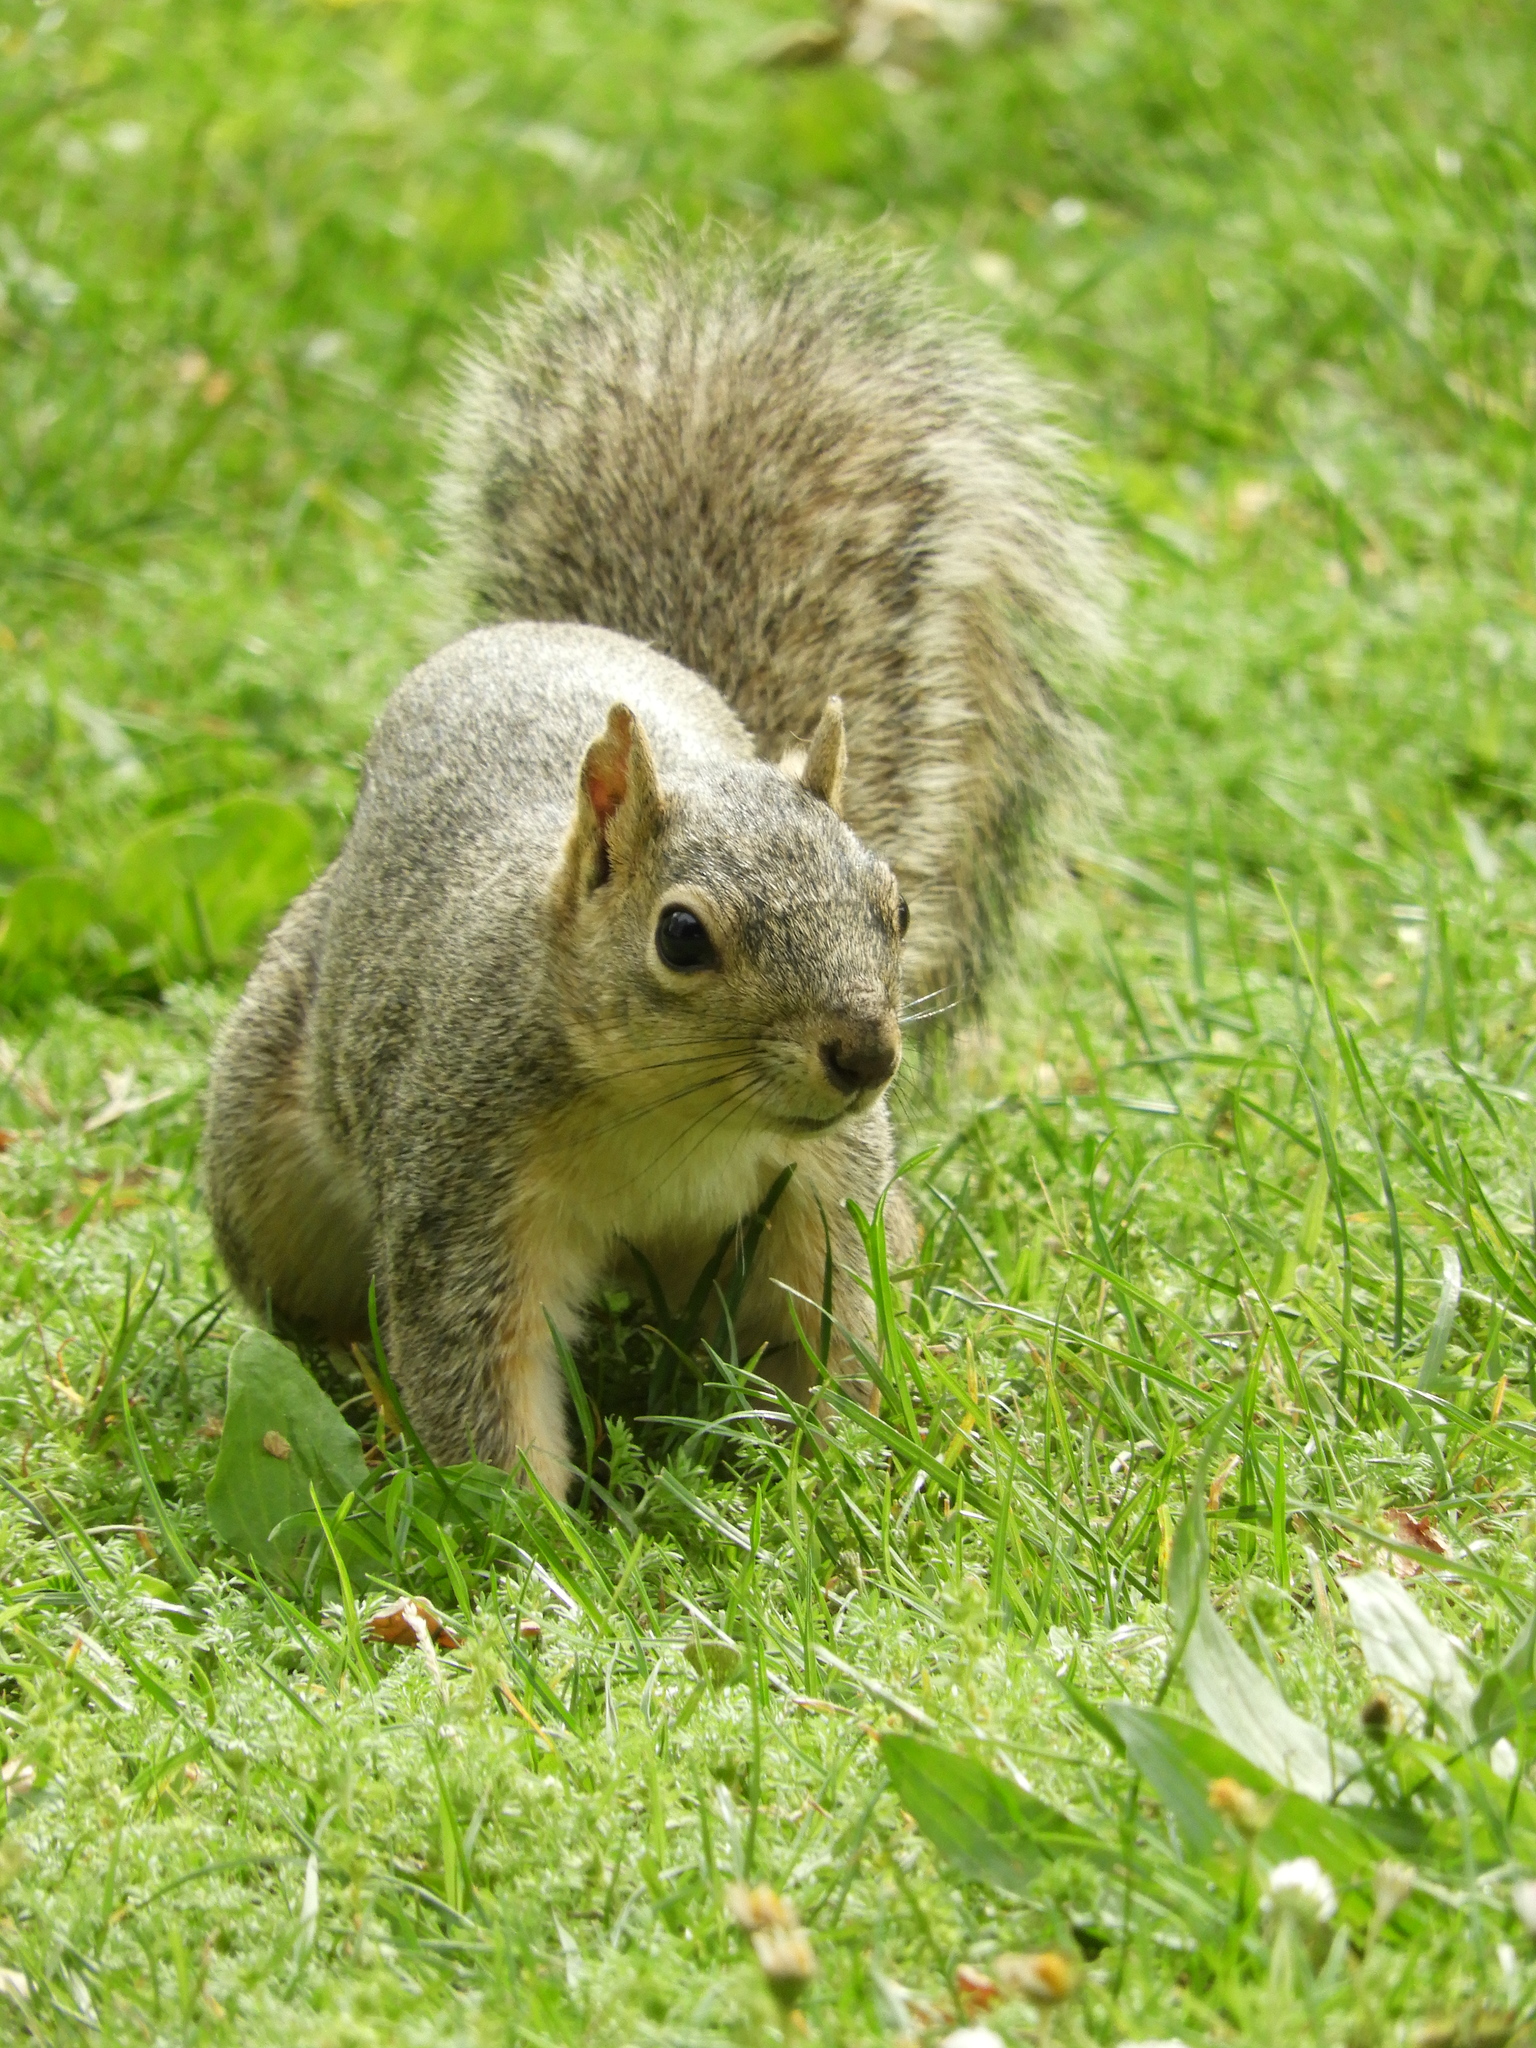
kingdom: Animalia
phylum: Chordata
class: Mammalia
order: Rodentia
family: Sciuridae
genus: Sciurus
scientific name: Sciurus niger
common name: Fox squirrel
